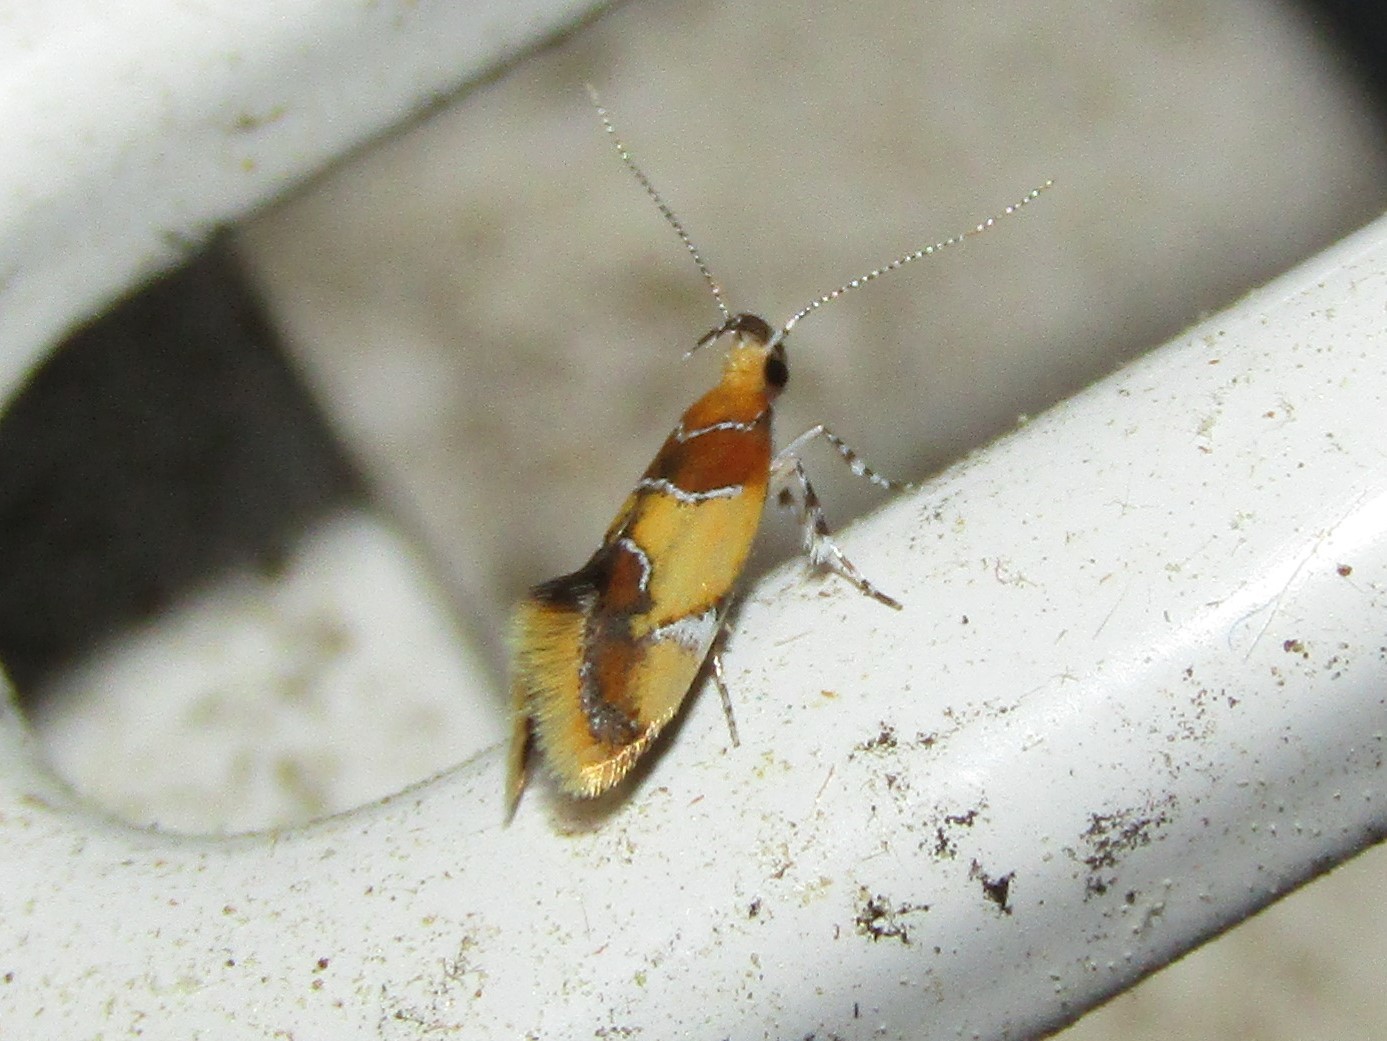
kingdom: Animalia
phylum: Arthropoda
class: Insecta
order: Lepidoptera
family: Oecophoridae
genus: Callima
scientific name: Callima argenticinctella
